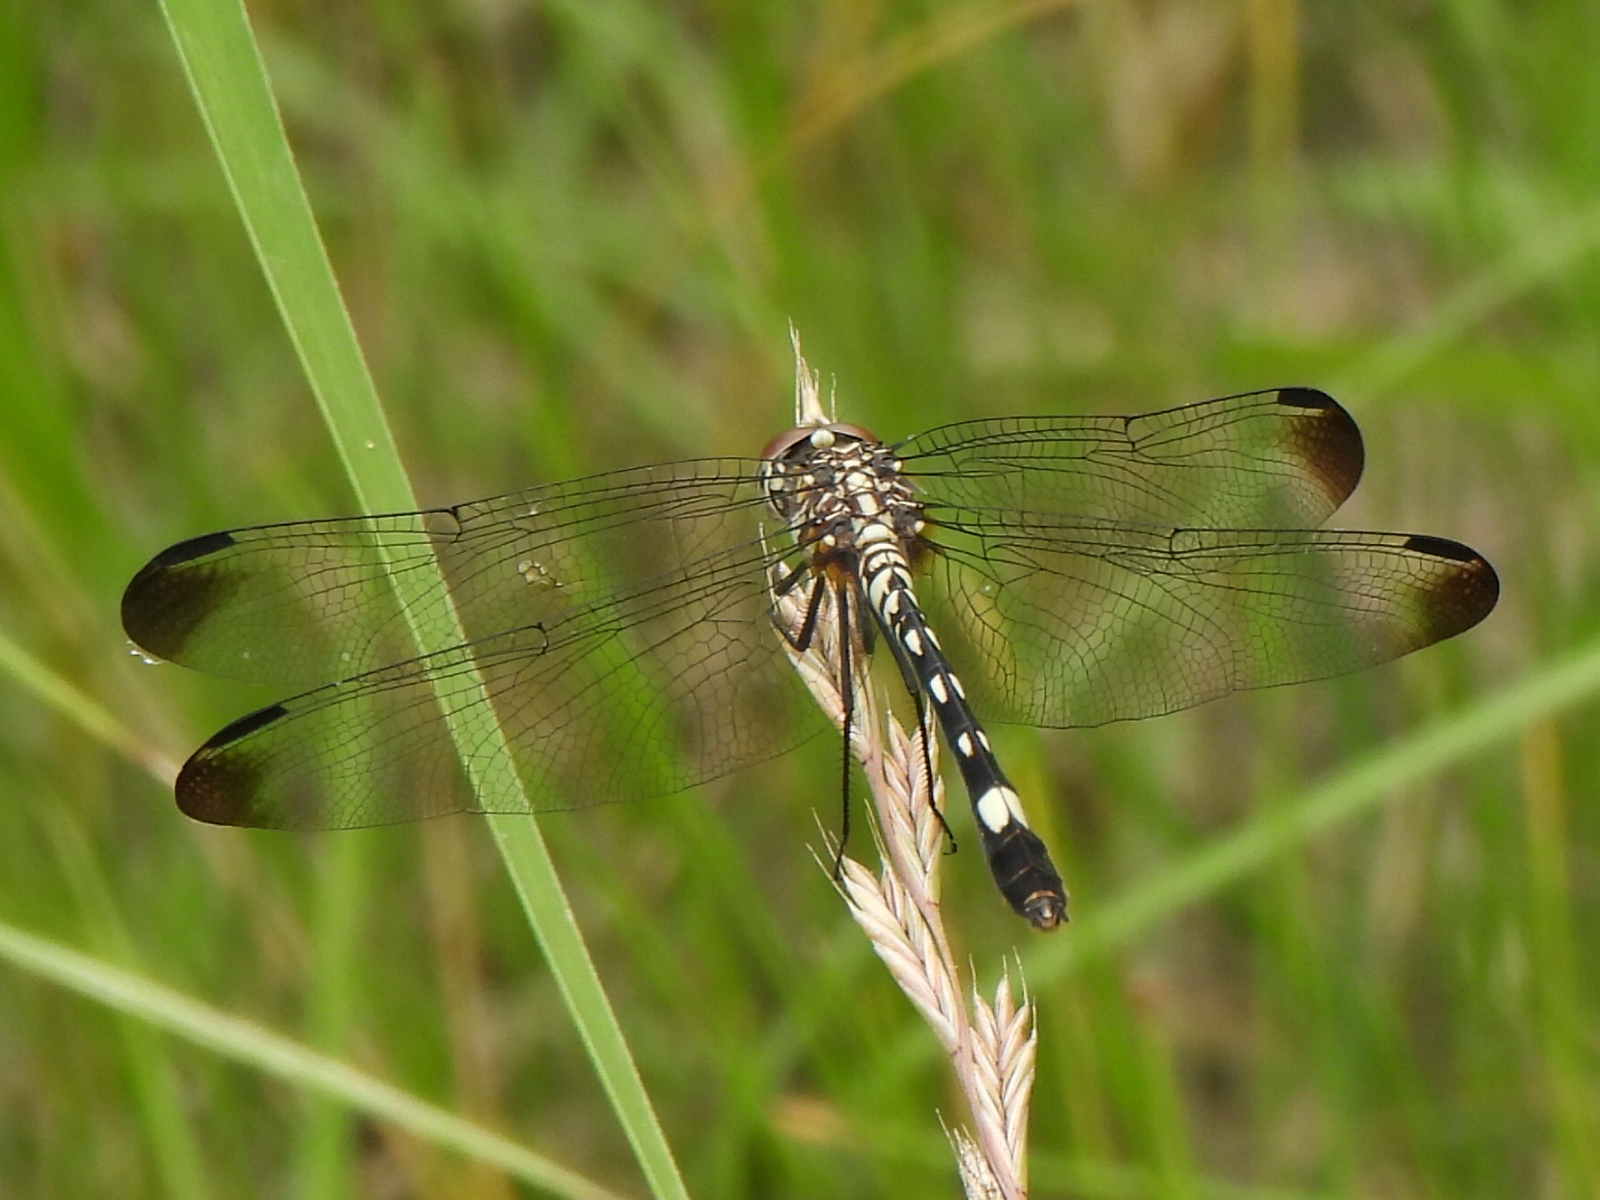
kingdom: Animalia
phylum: Arthropoda
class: Insecta
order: Odonata
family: Libellulidae
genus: Dythemis
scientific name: Dythemis velox
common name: Swift setwing
